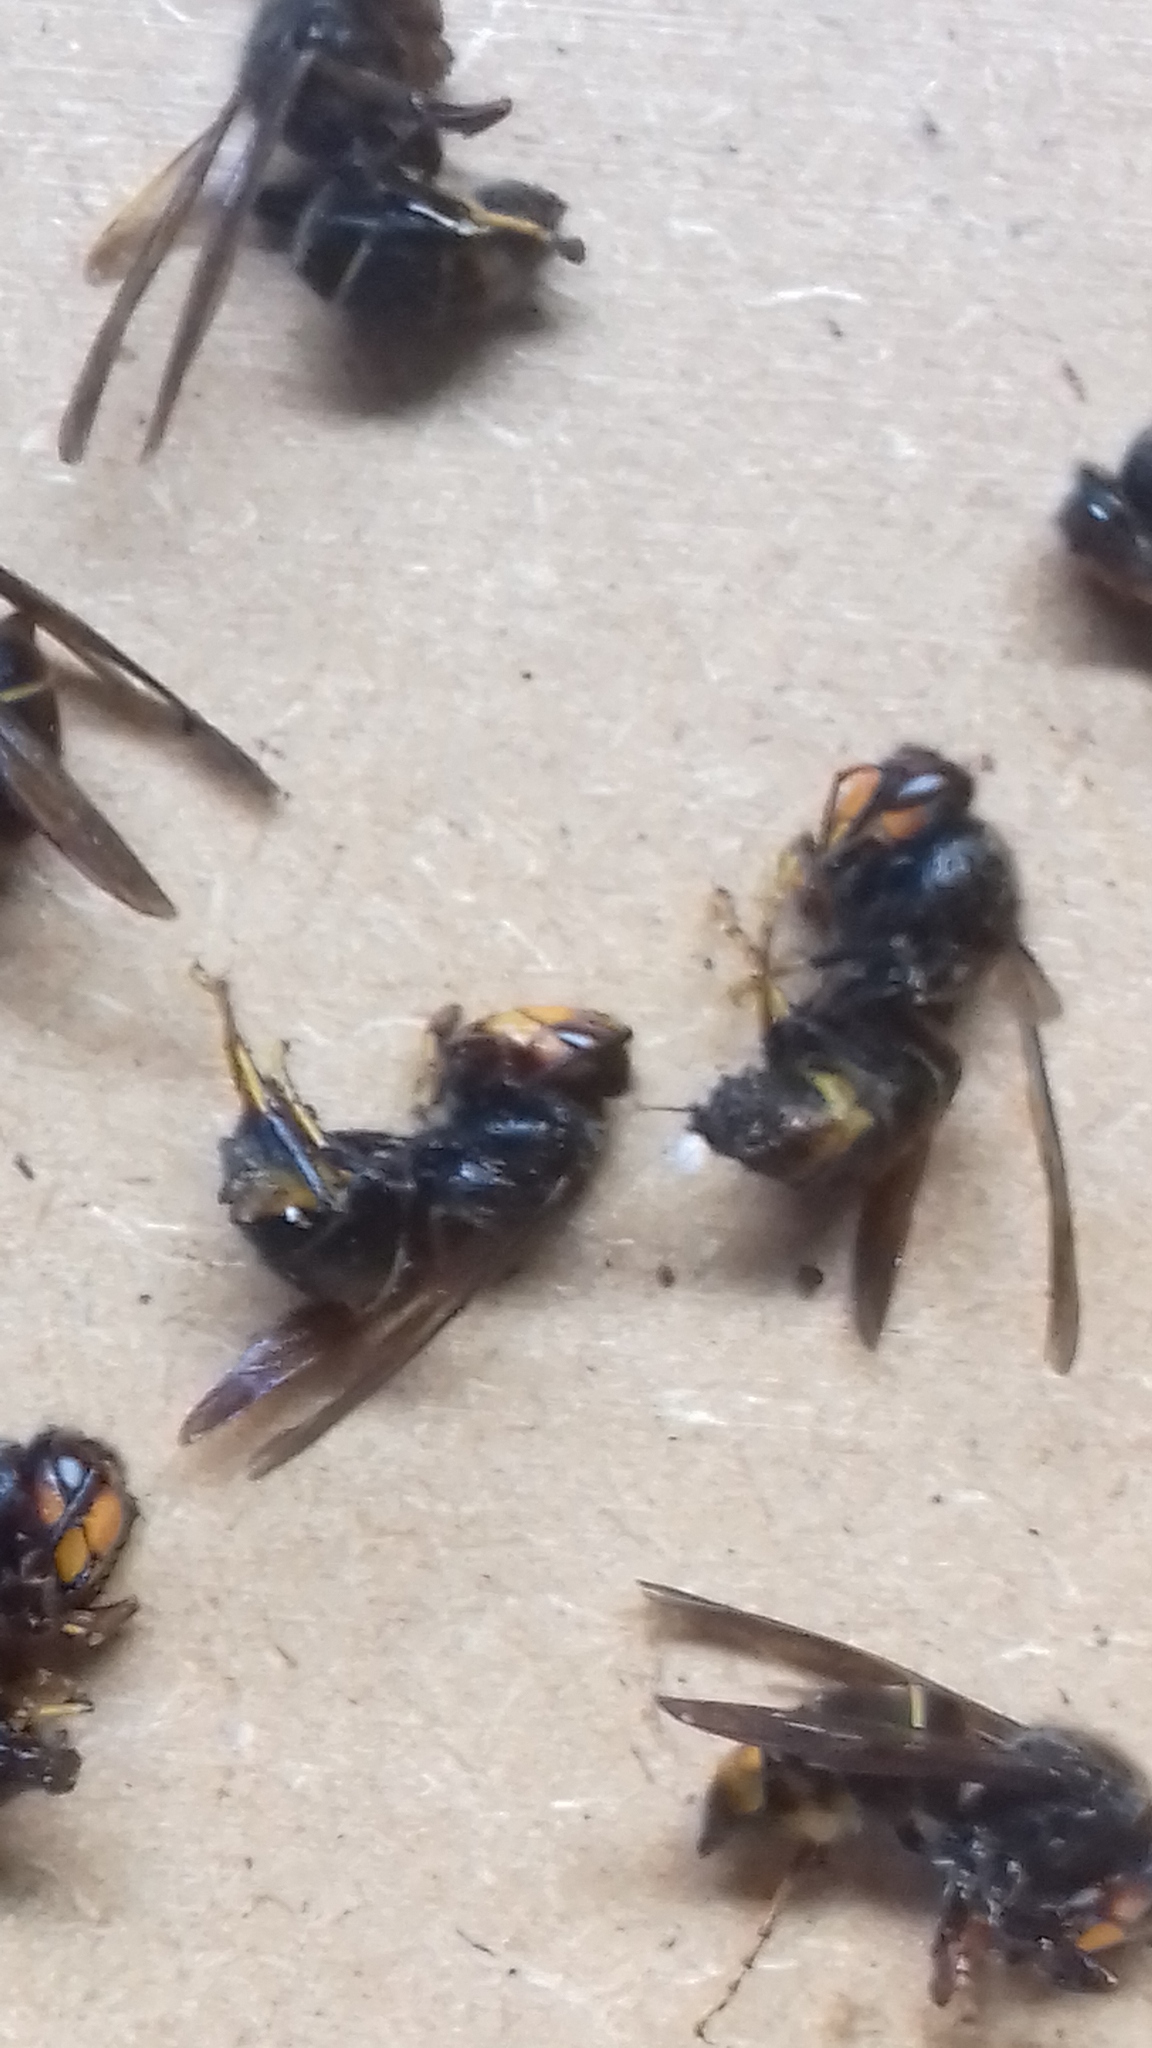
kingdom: Animalia
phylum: Arthropoda
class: Insecta
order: Hymenoptera
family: Vespidae
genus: Vespa
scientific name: Vespa velutina
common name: Asian hornet
